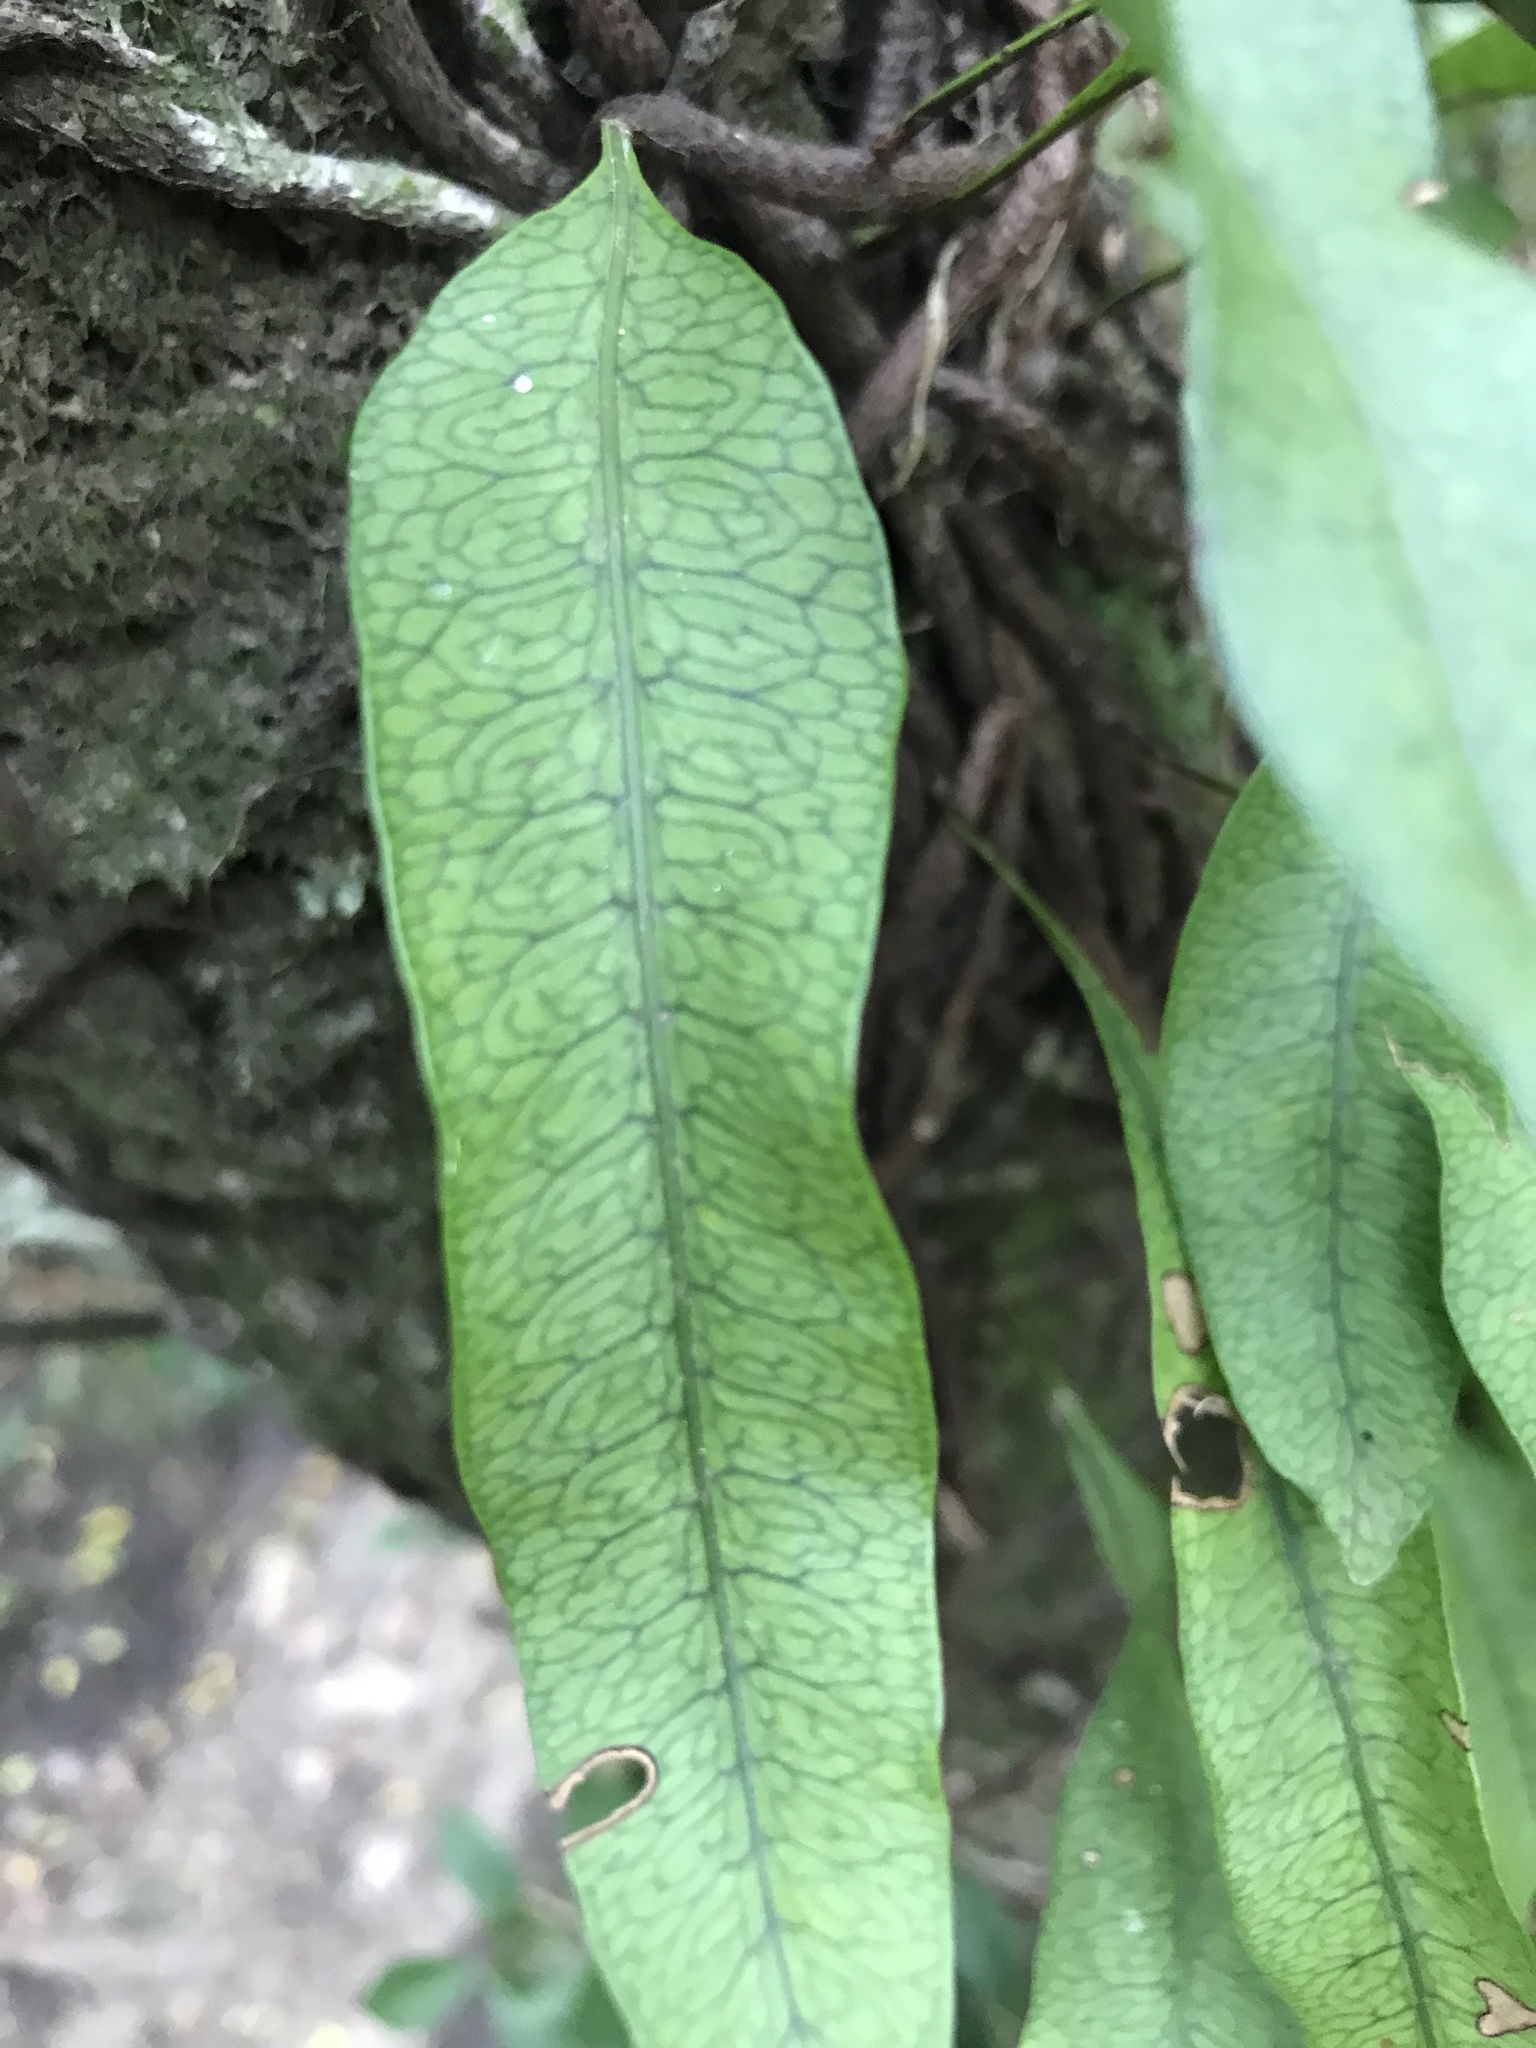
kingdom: Plantae
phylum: Tracheophyta
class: Polypodiopsida
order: Polypodiales
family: Polypodiaceae
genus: Microgramma
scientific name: Microgramma squamulosa
